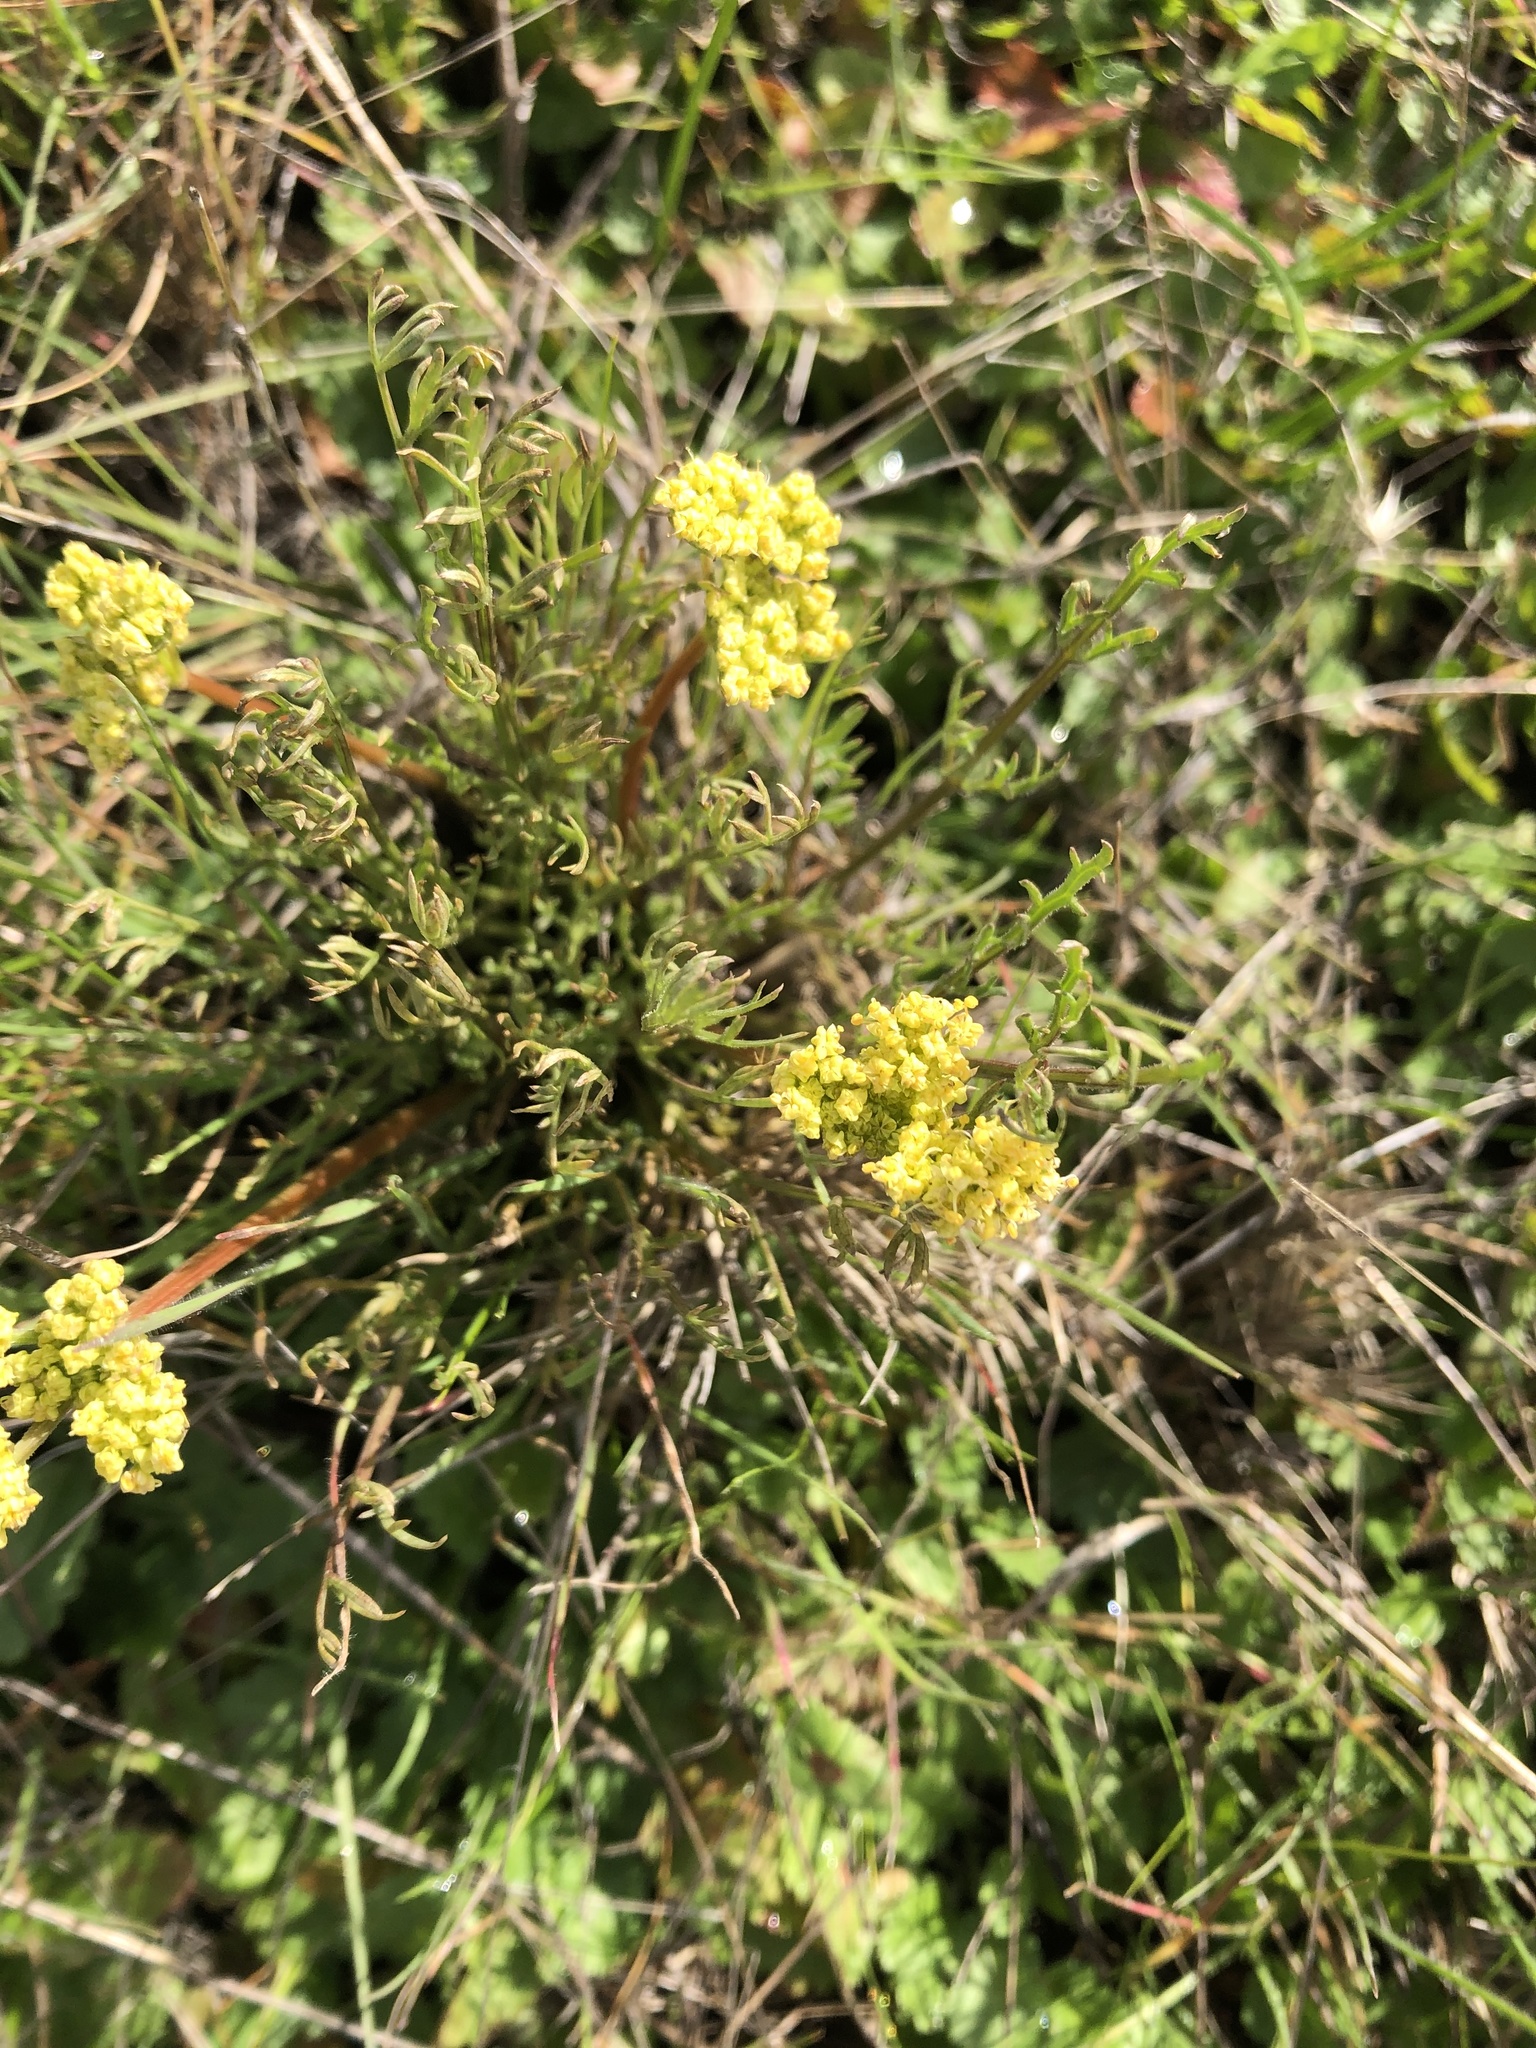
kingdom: Plantae
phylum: Tracheophyta
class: Magnoliopsida
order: Apiales
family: Apiaceae
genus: Lomatium
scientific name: Lomatium caruifolium
